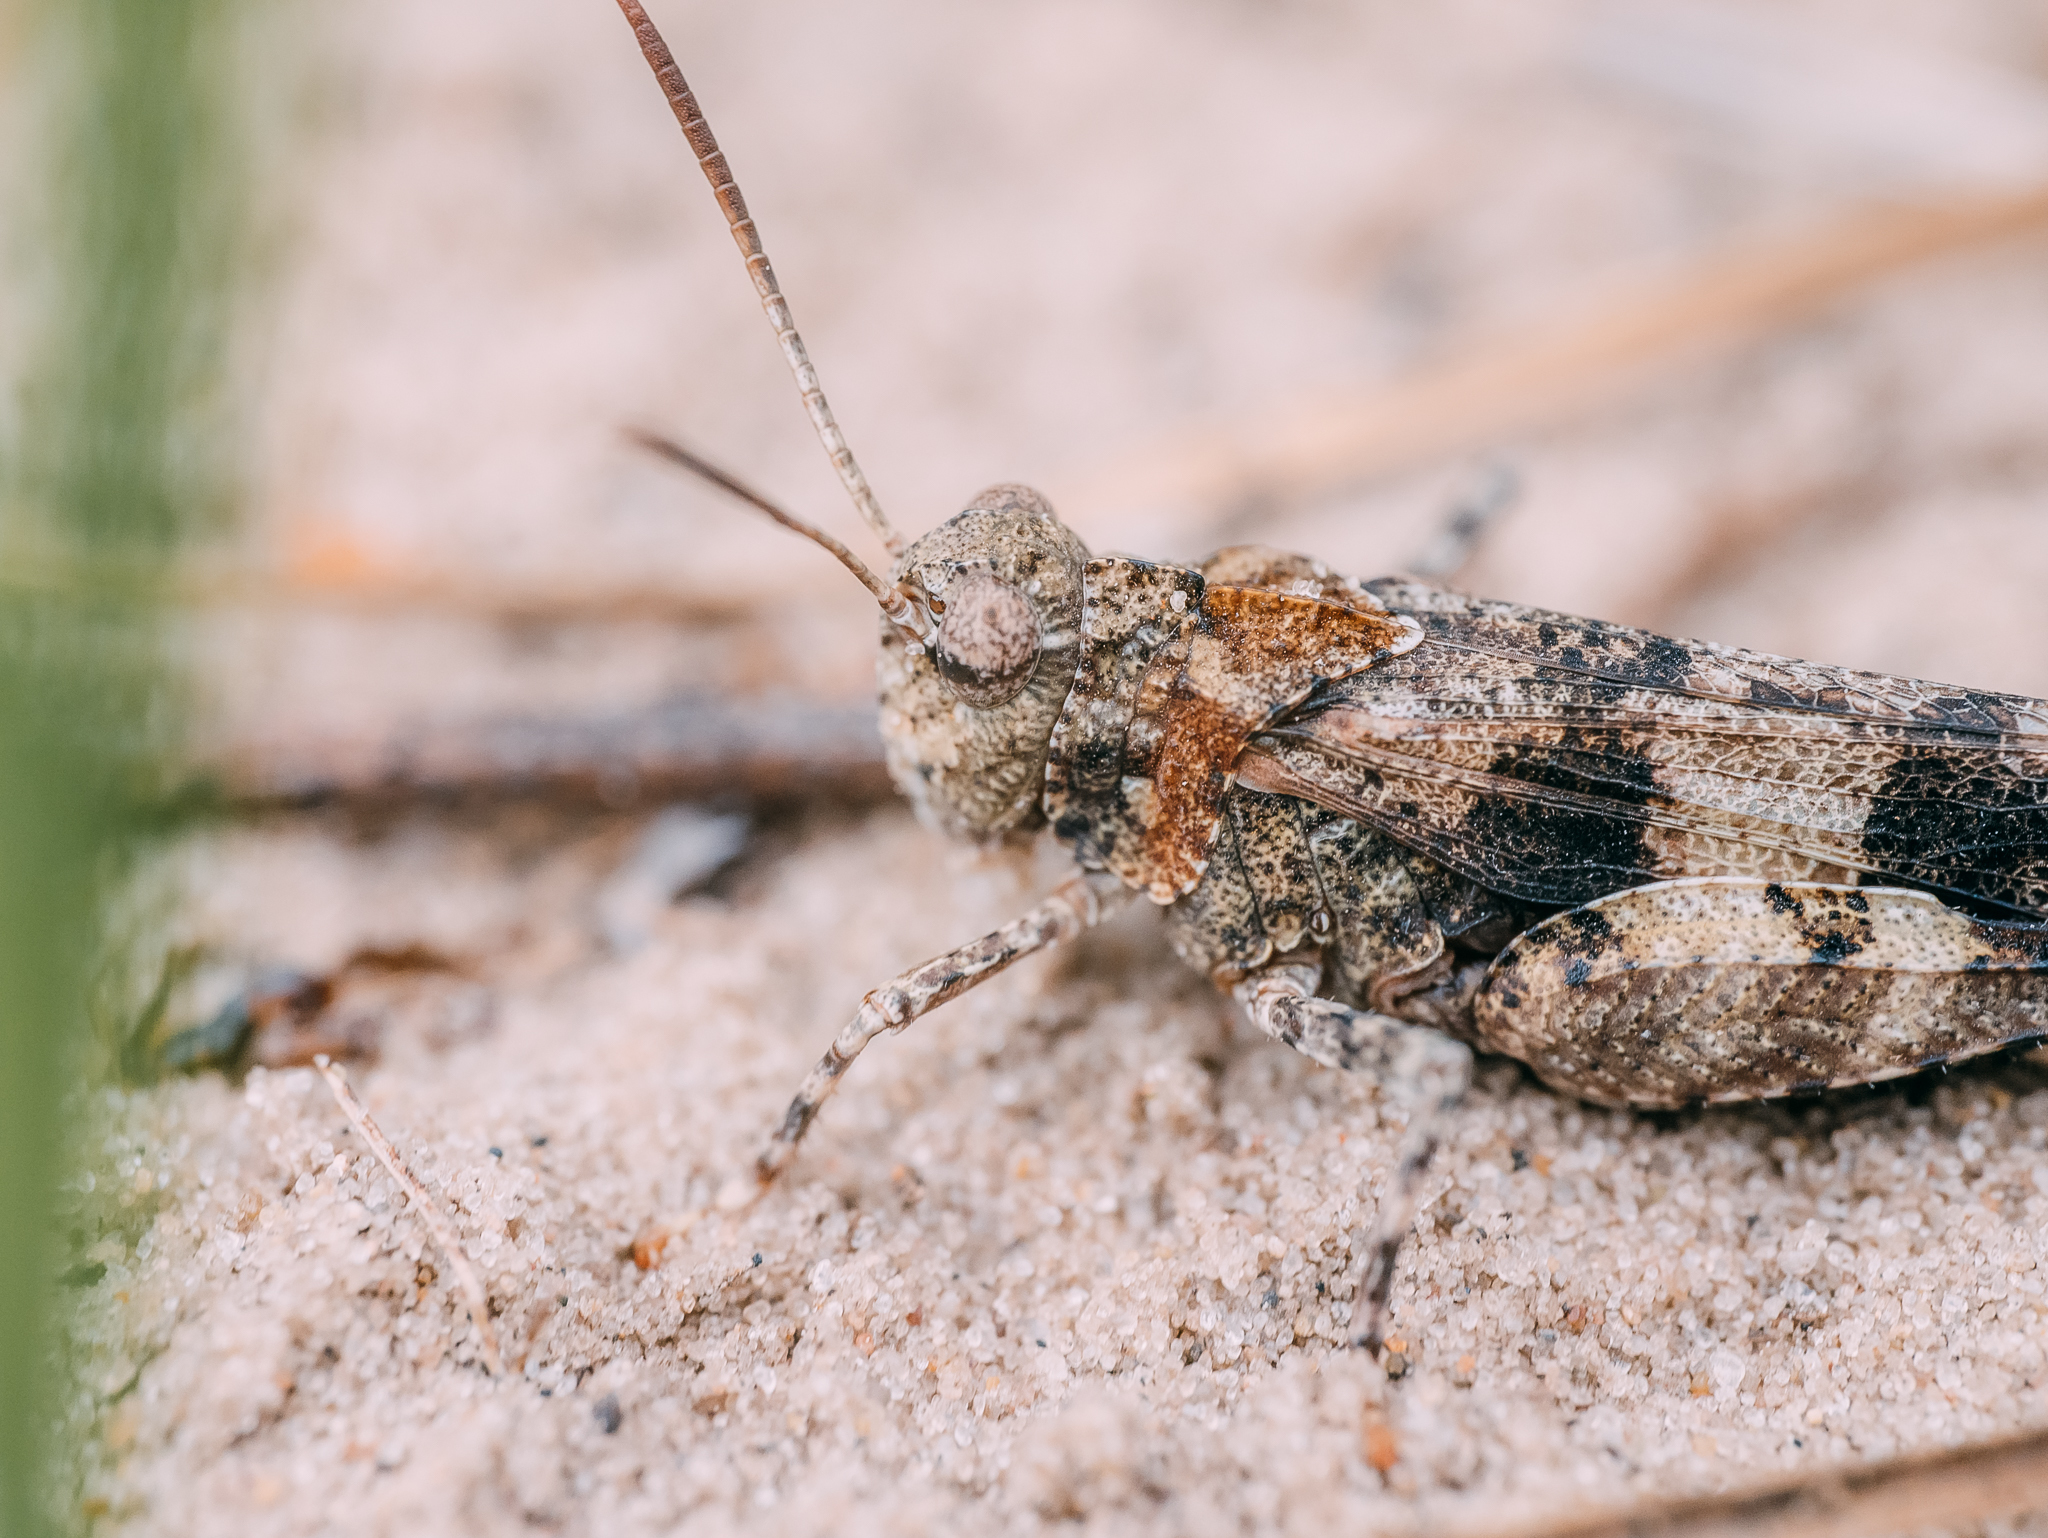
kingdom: Animalia
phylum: Arthropoda
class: Insecta
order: Orthoptera
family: Acrididae
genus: Oedipoda
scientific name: Oedipoda caerulescens
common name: Blue-winged grasshopper
